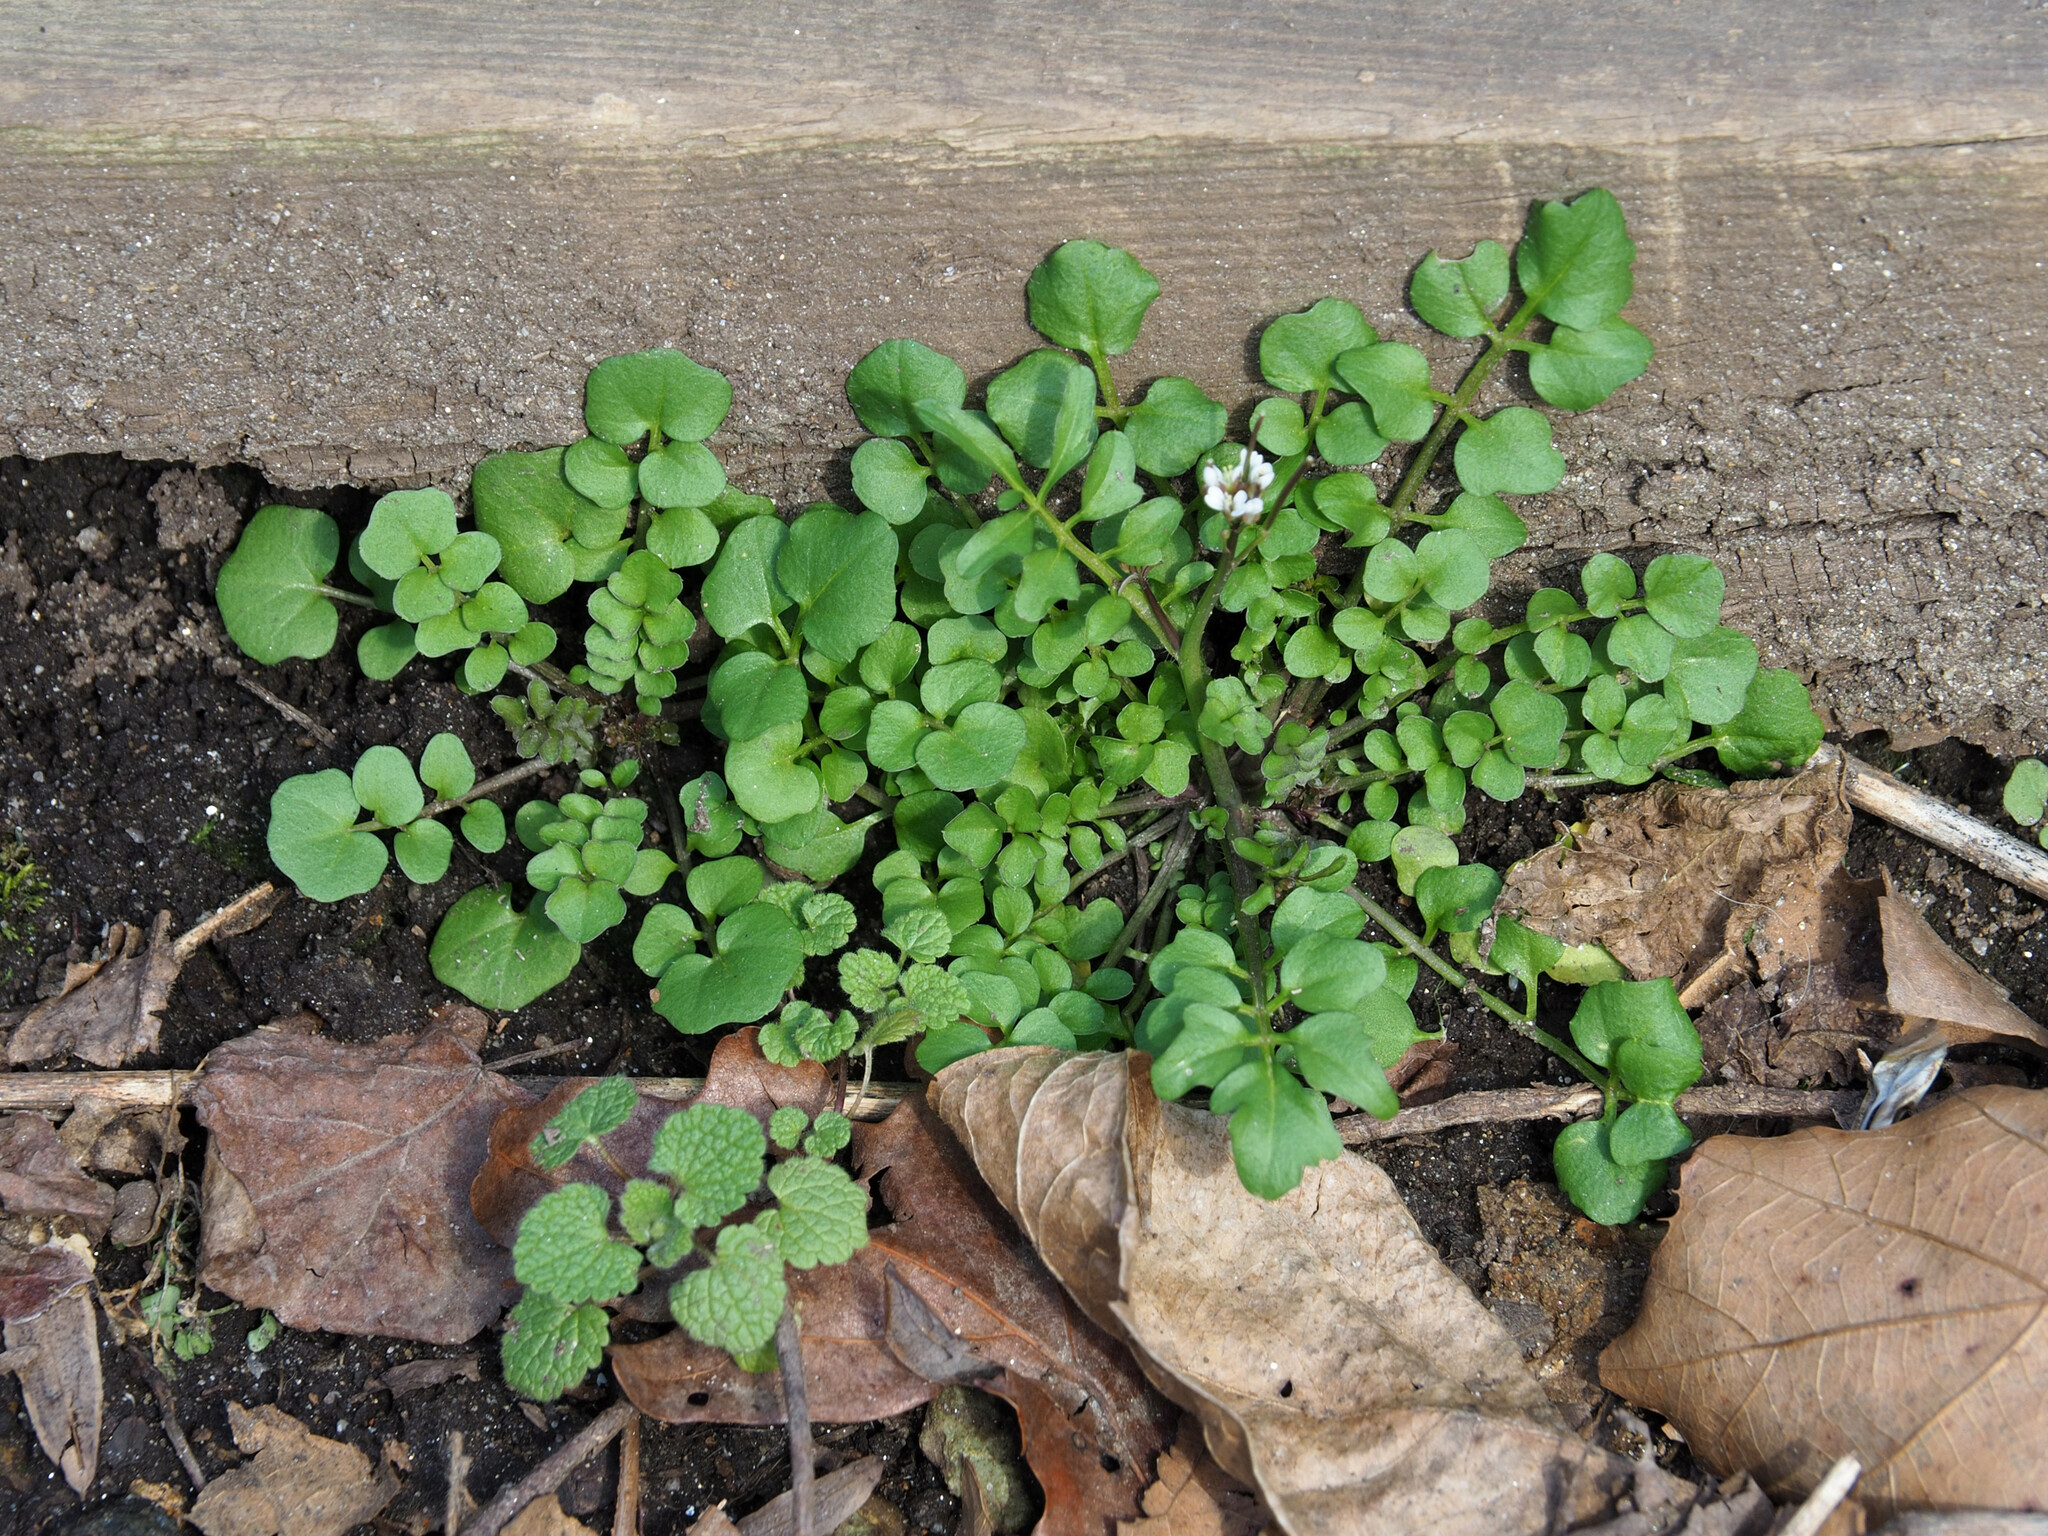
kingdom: Plantae
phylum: Tracheophyta
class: Magnoliopsida
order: Brassicales
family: Brassicaceae
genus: Cardamine
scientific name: Cardamine hirsuta
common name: Hairy bittercress
